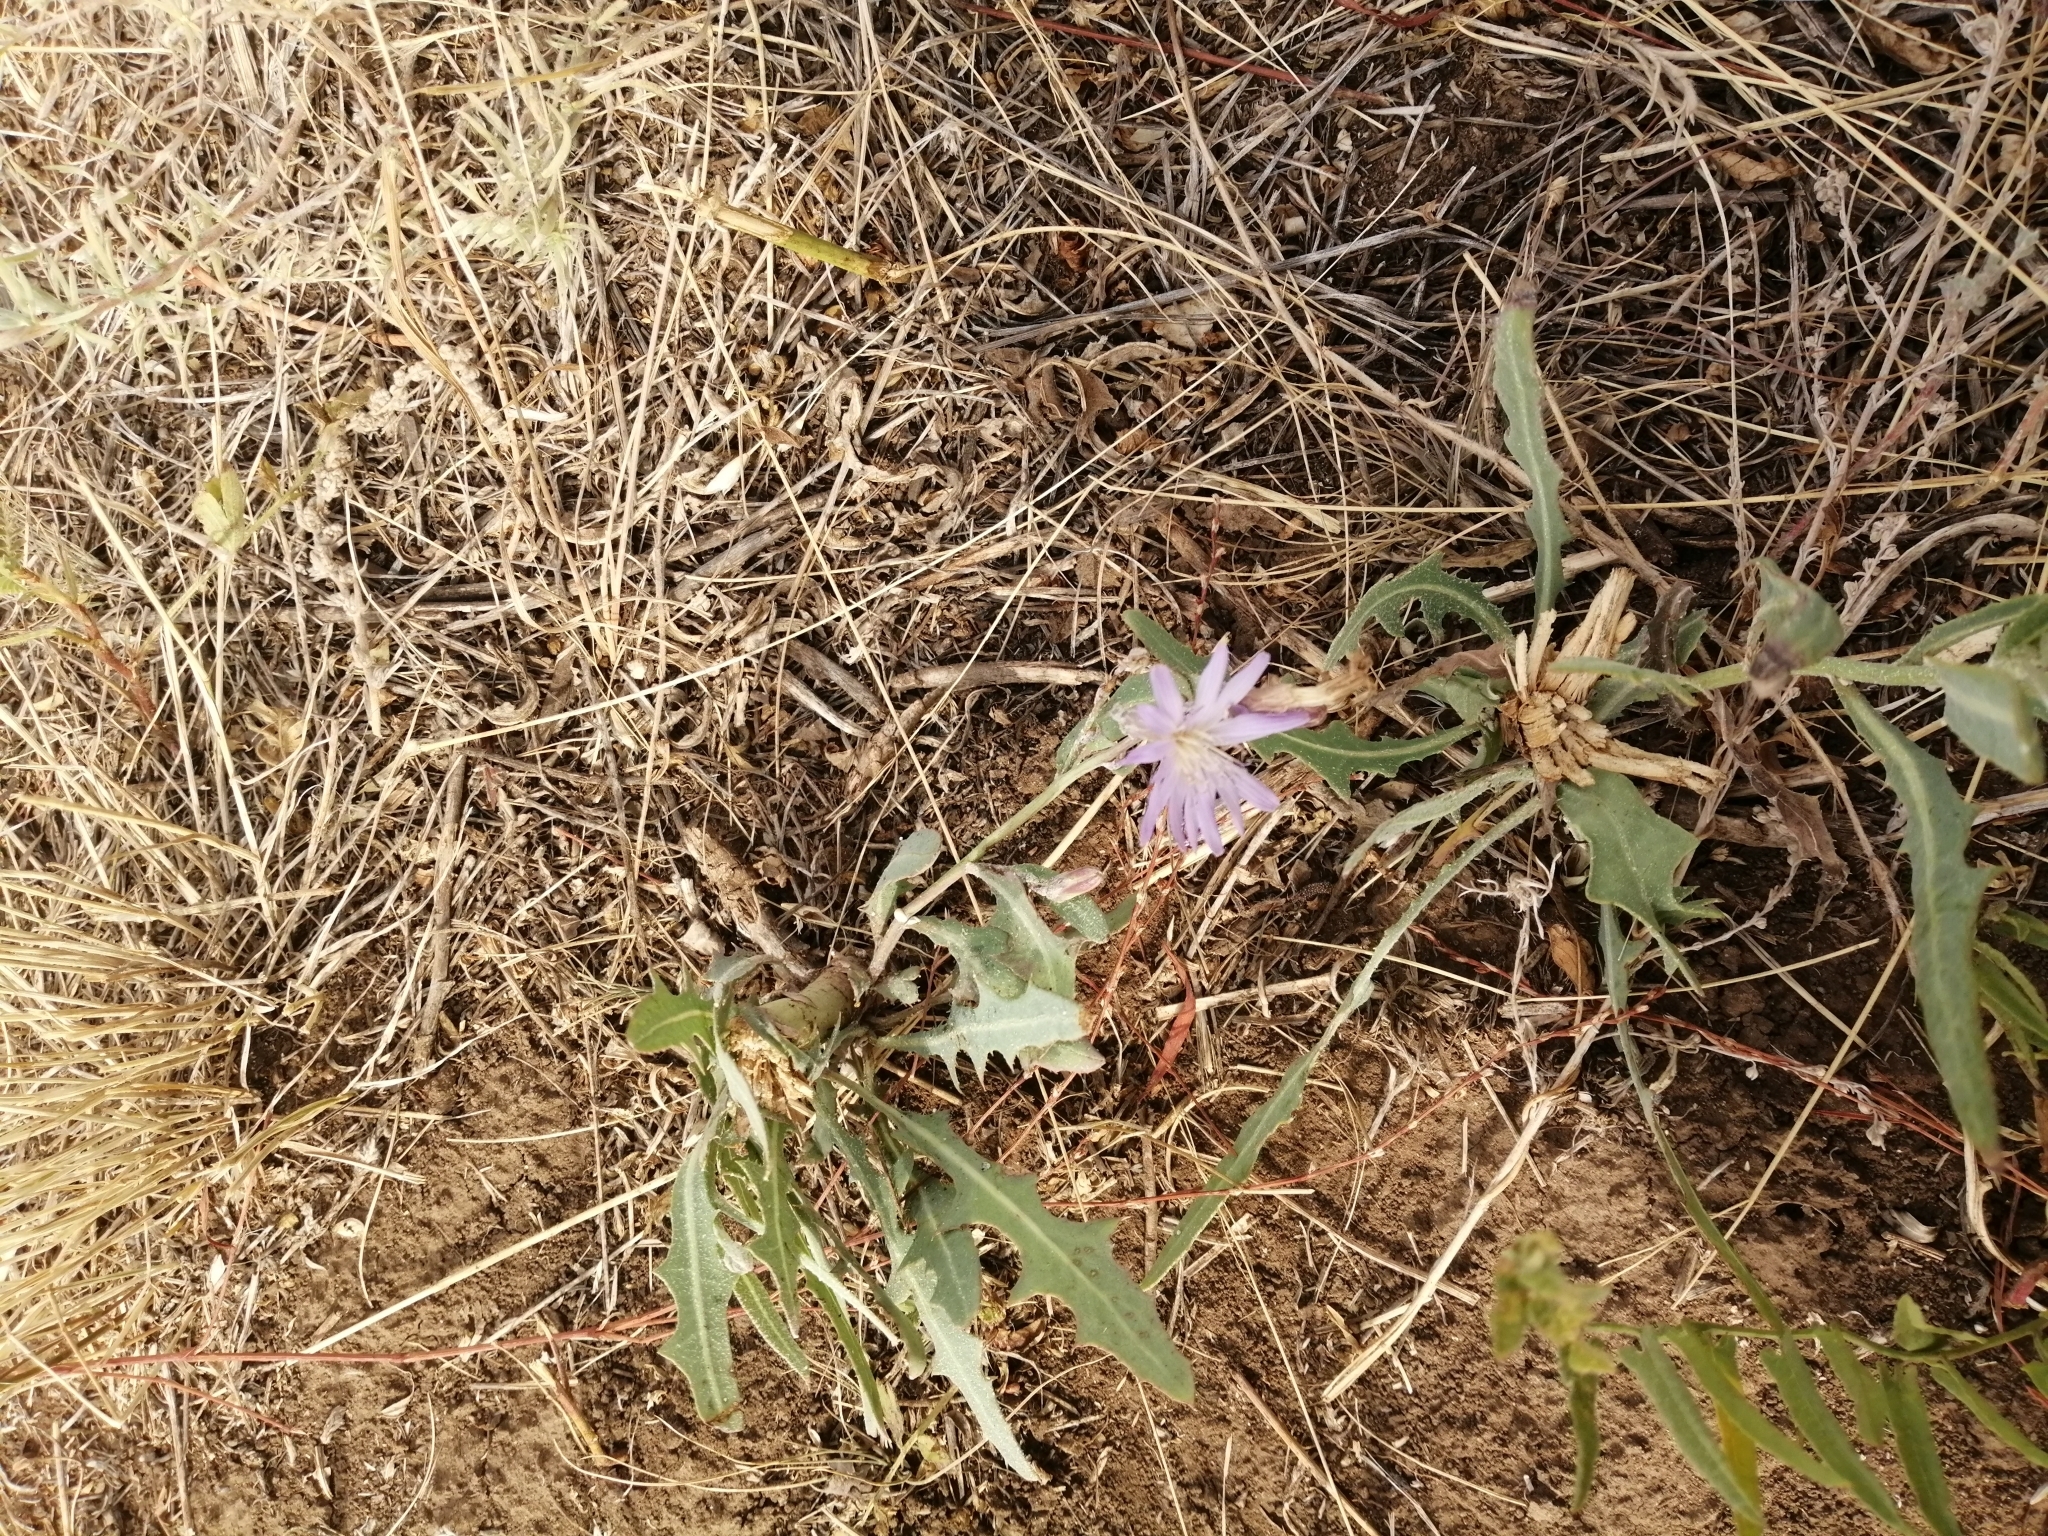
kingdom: Plantae
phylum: Tracheophyta
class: Magnoliopsida
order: Asterales
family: Asteraceae
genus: Lactuca
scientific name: Lactuca tatarica
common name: Blue lettuce
